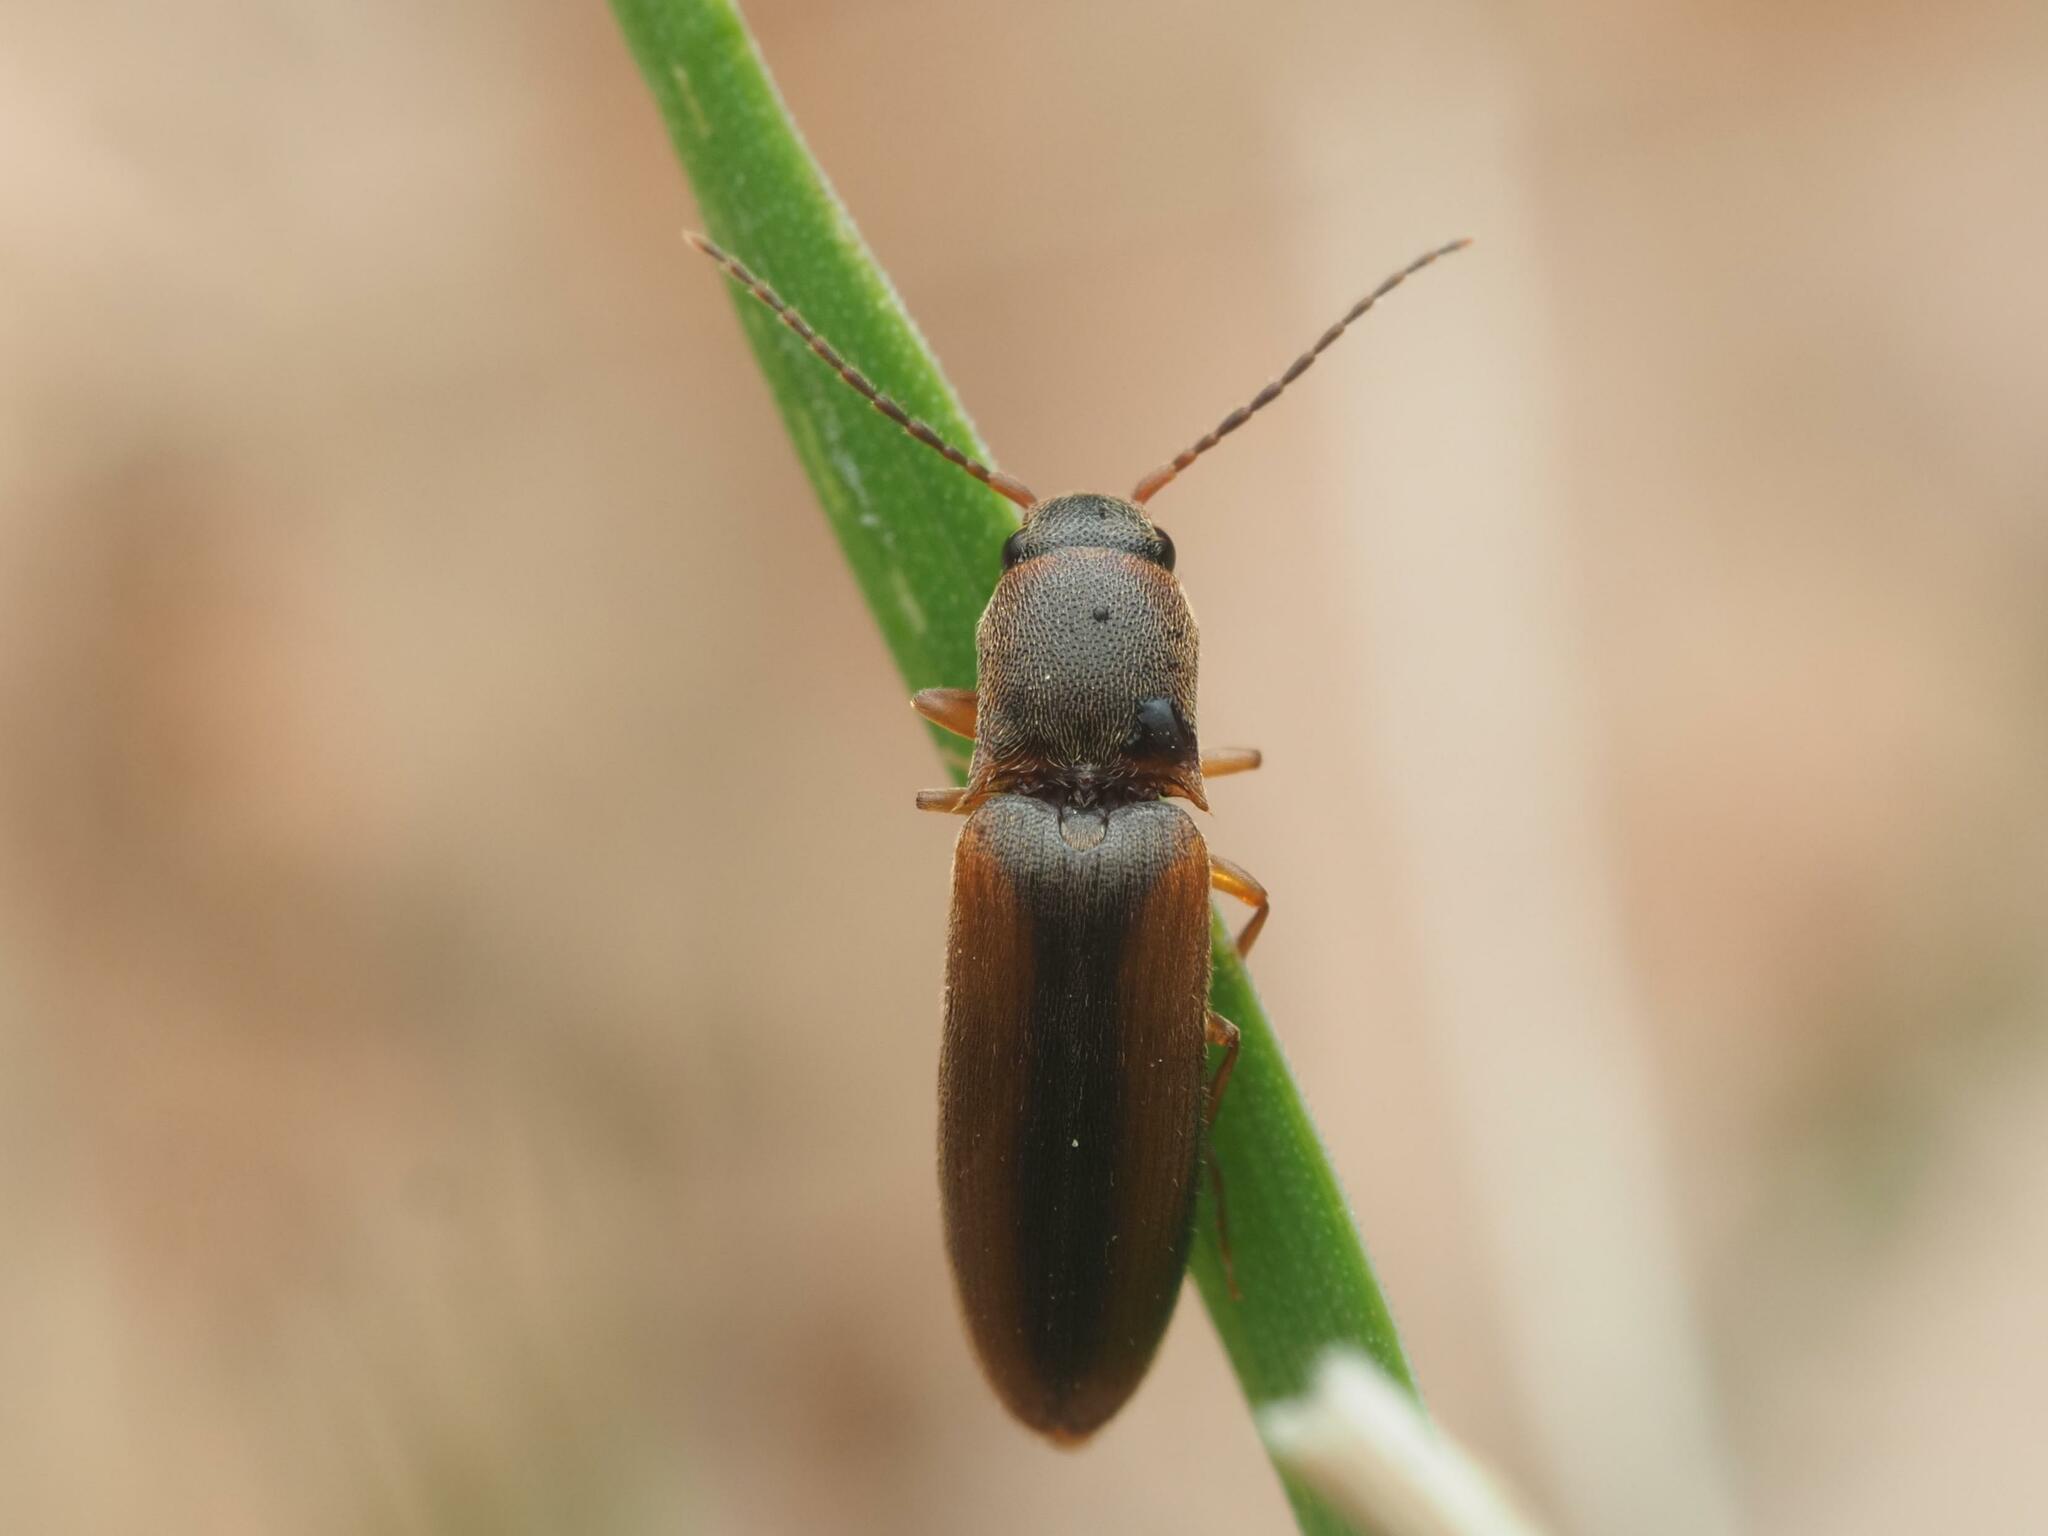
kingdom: Animalia
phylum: Arthropoda
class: Insecta
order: Coleoptera
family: Elateridae
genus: Dalopius
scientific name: Dalopius marginatus
